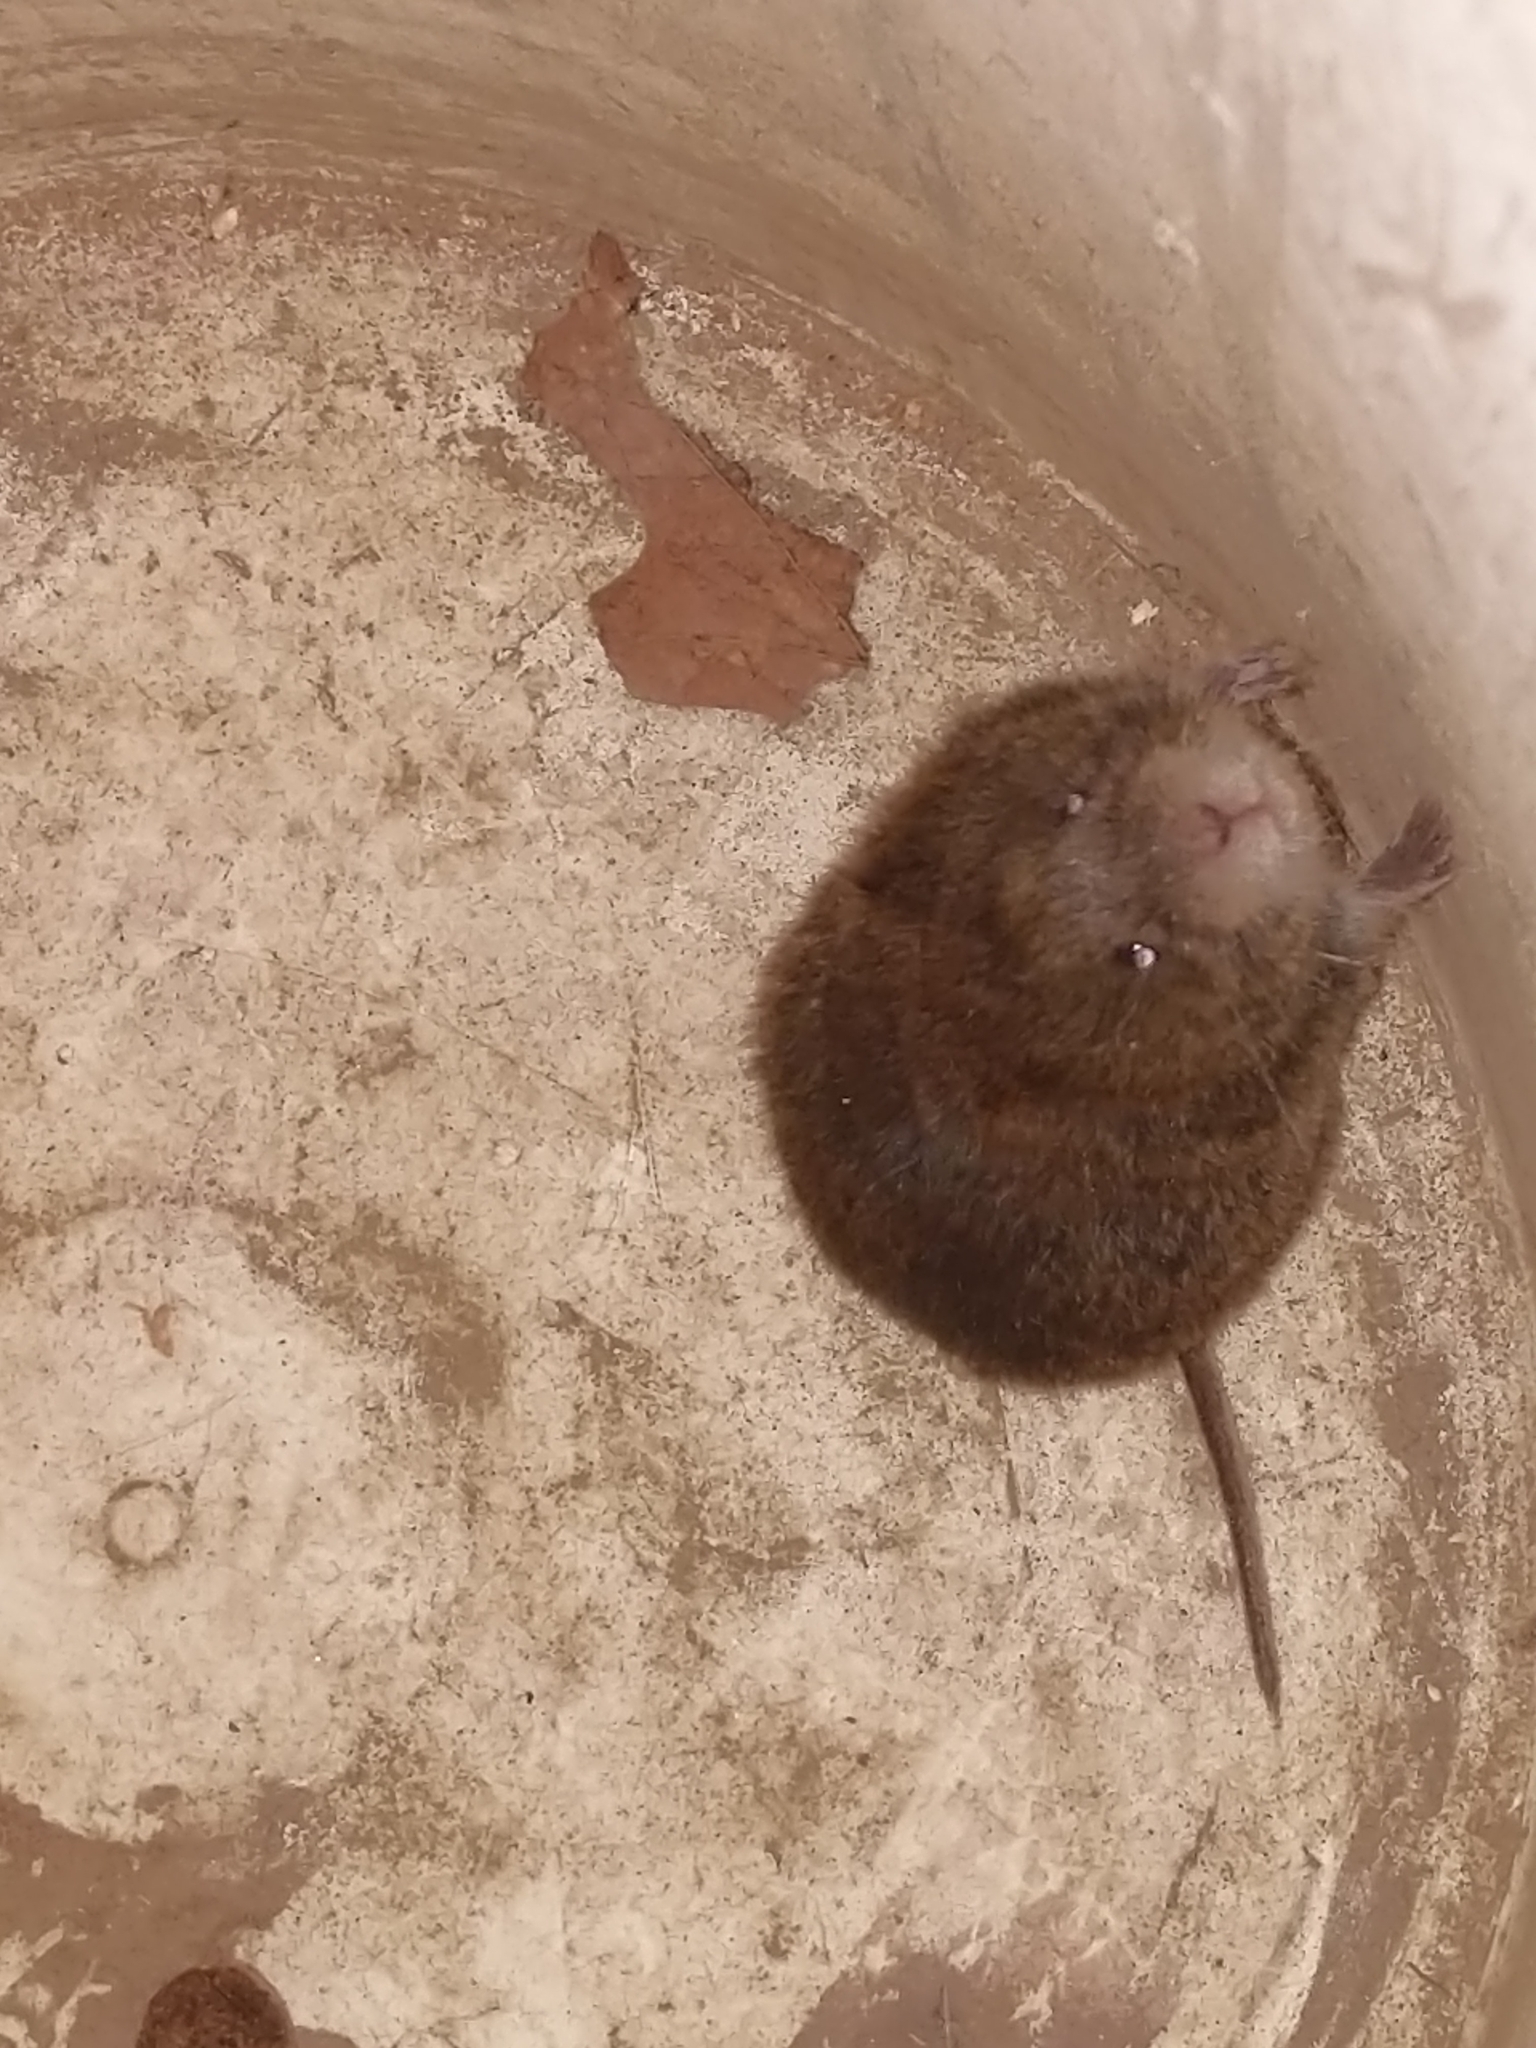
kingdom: Animalia
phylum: Chordata
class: Mammalia
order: Rodentia
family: Cricetidae
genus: Microtus
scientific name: Microtus pennsylvanicus
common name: Meadow vole
